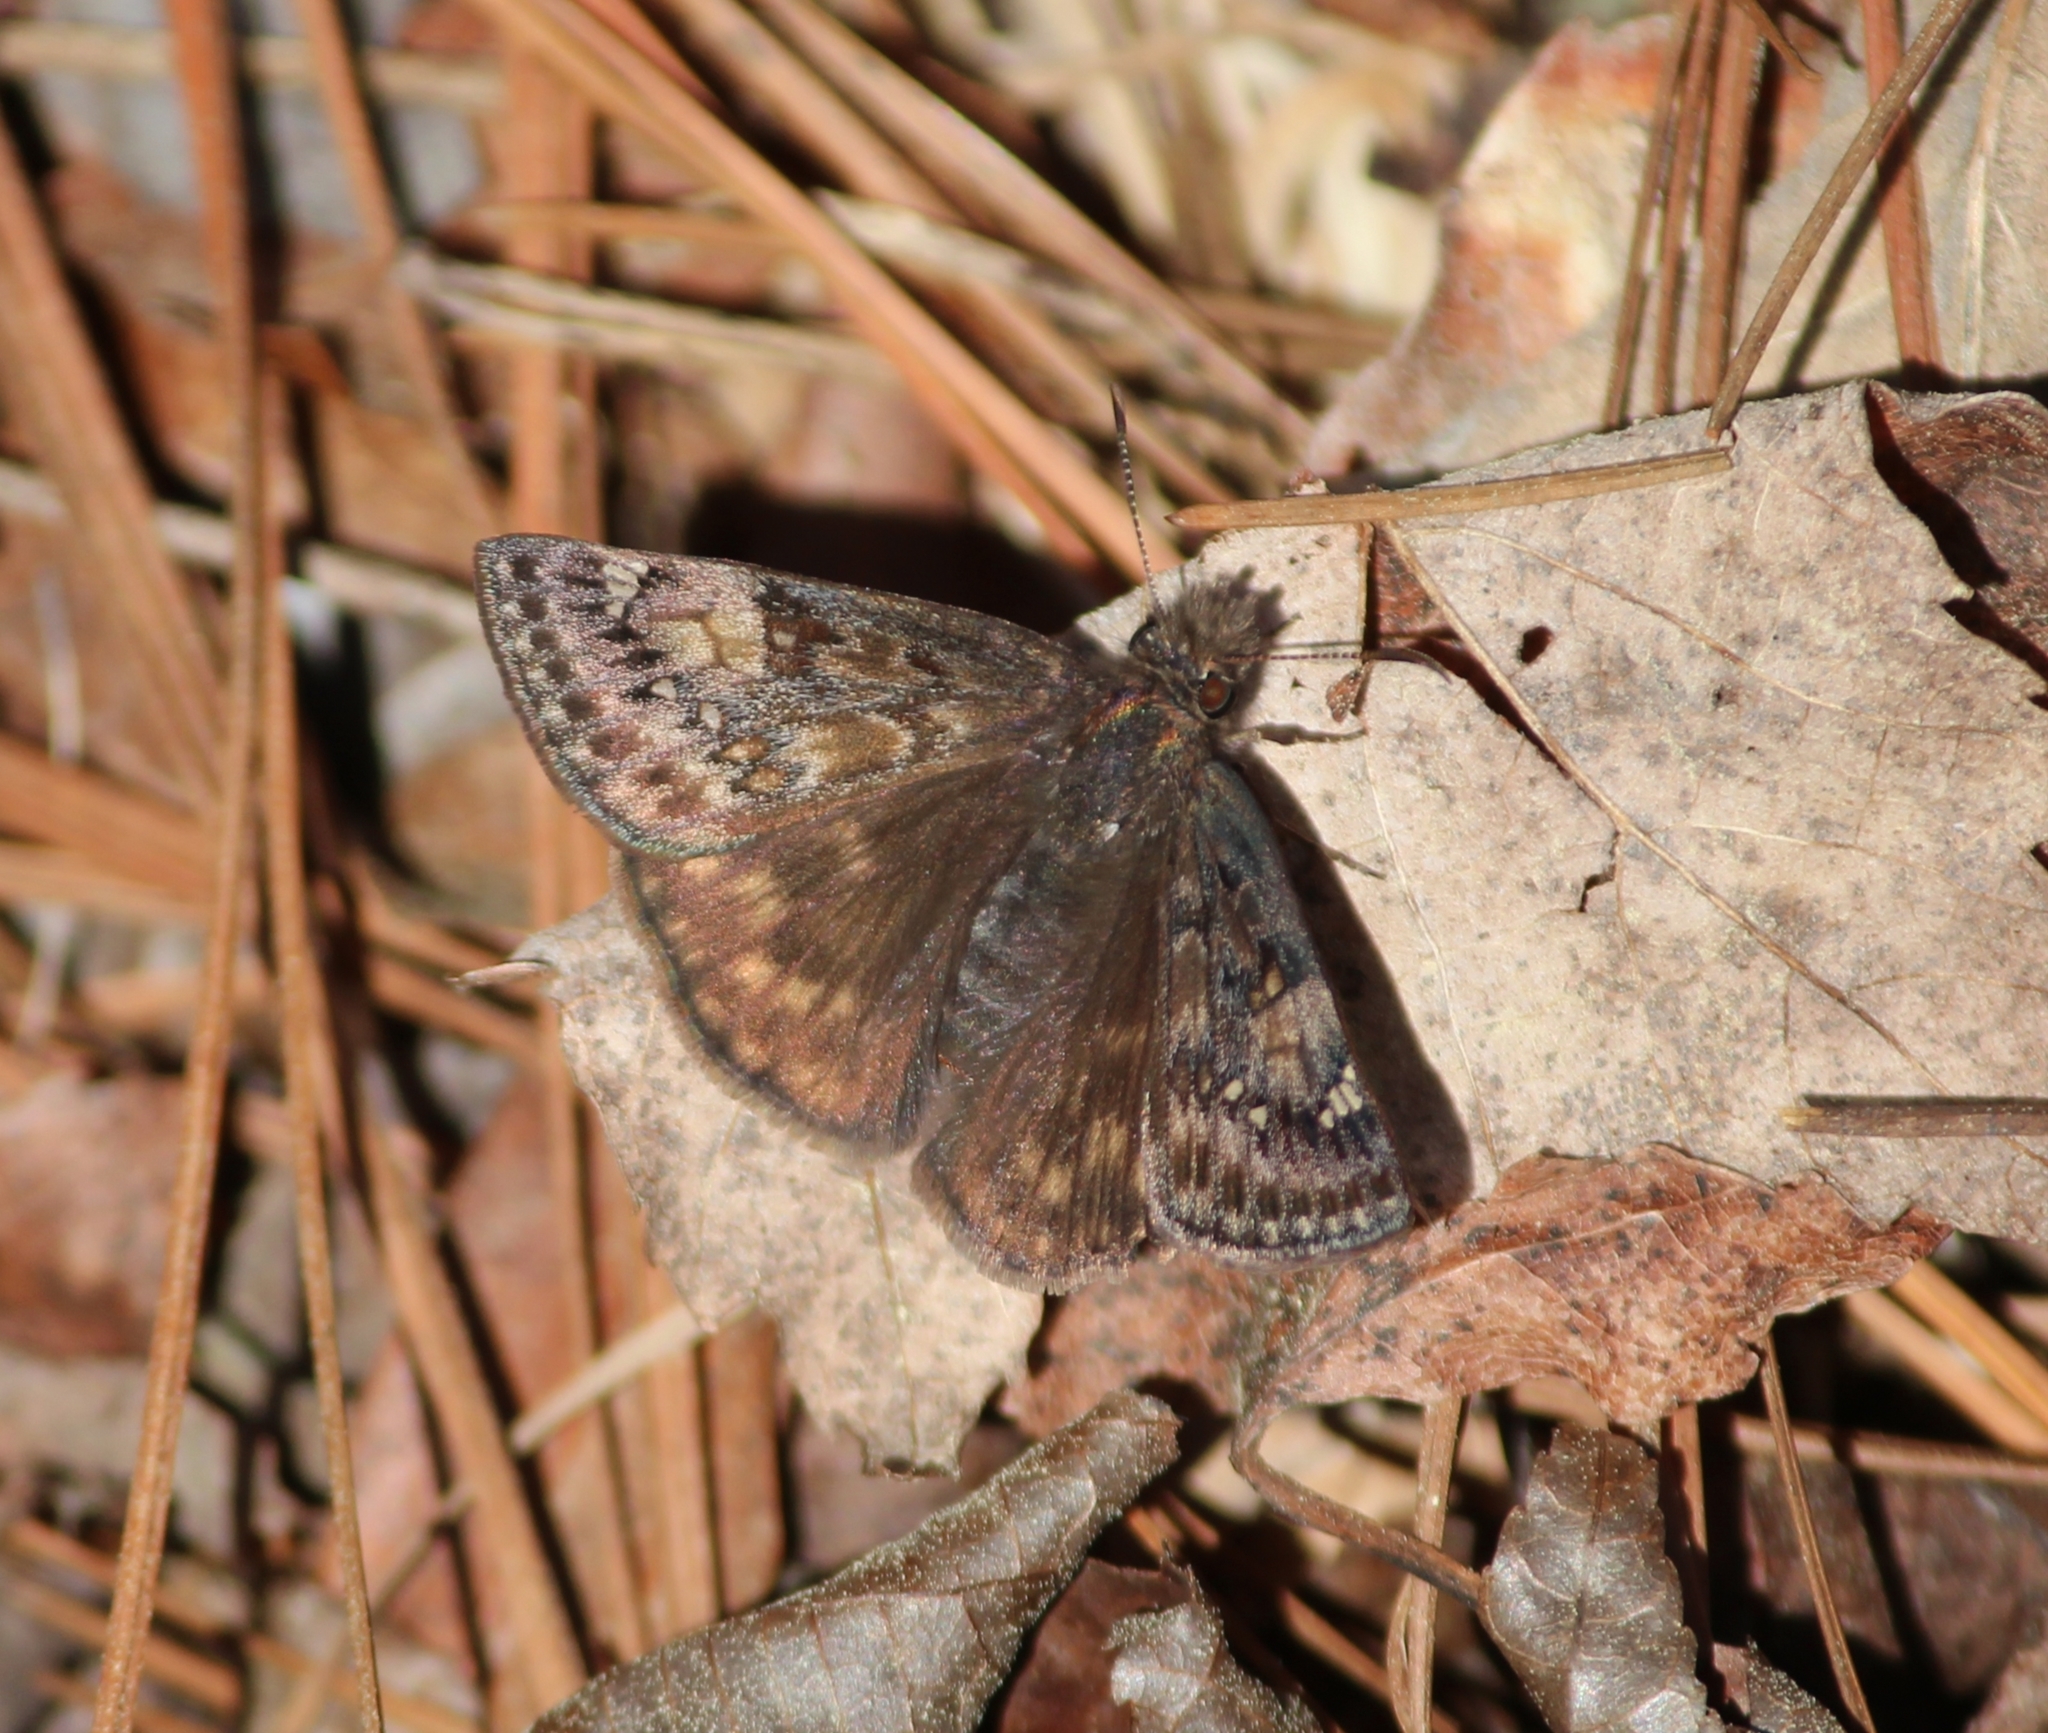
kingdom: Animalia
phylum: Arthropoda
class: Insecta
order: Lepidoptera
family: Hesperiidae
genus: Erynnis
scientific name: Erynnis juvenalis
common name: Juvenal's duskywing
